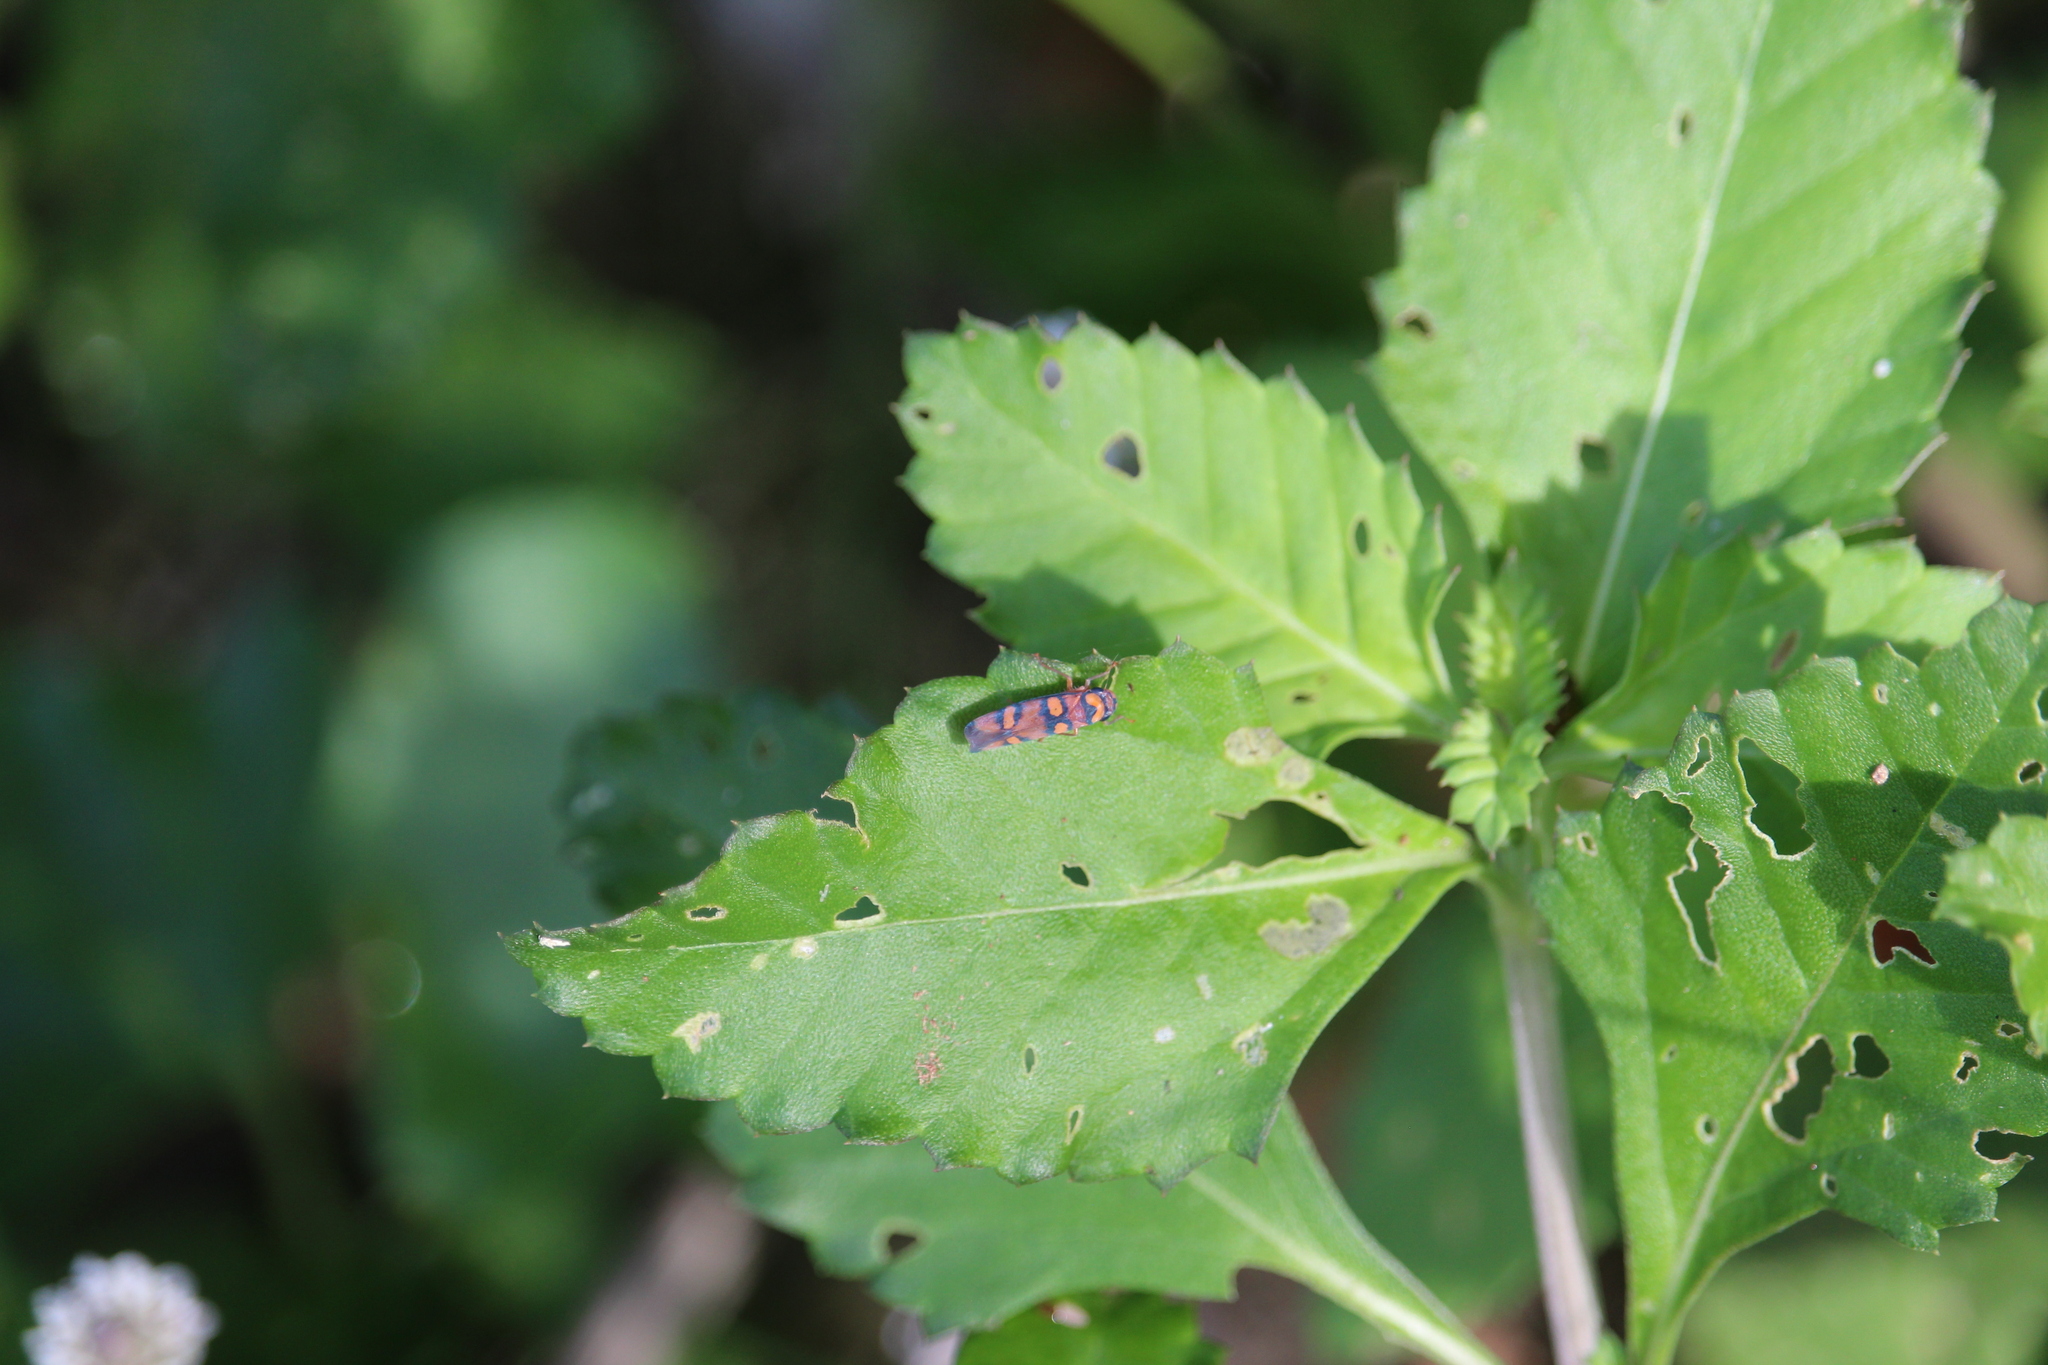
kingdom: Animalia
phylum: Arthropoda
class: Insecta
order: Hemiptera
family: Cicadellidae
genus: Pawiloma
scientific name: Pawiloma jucunda
